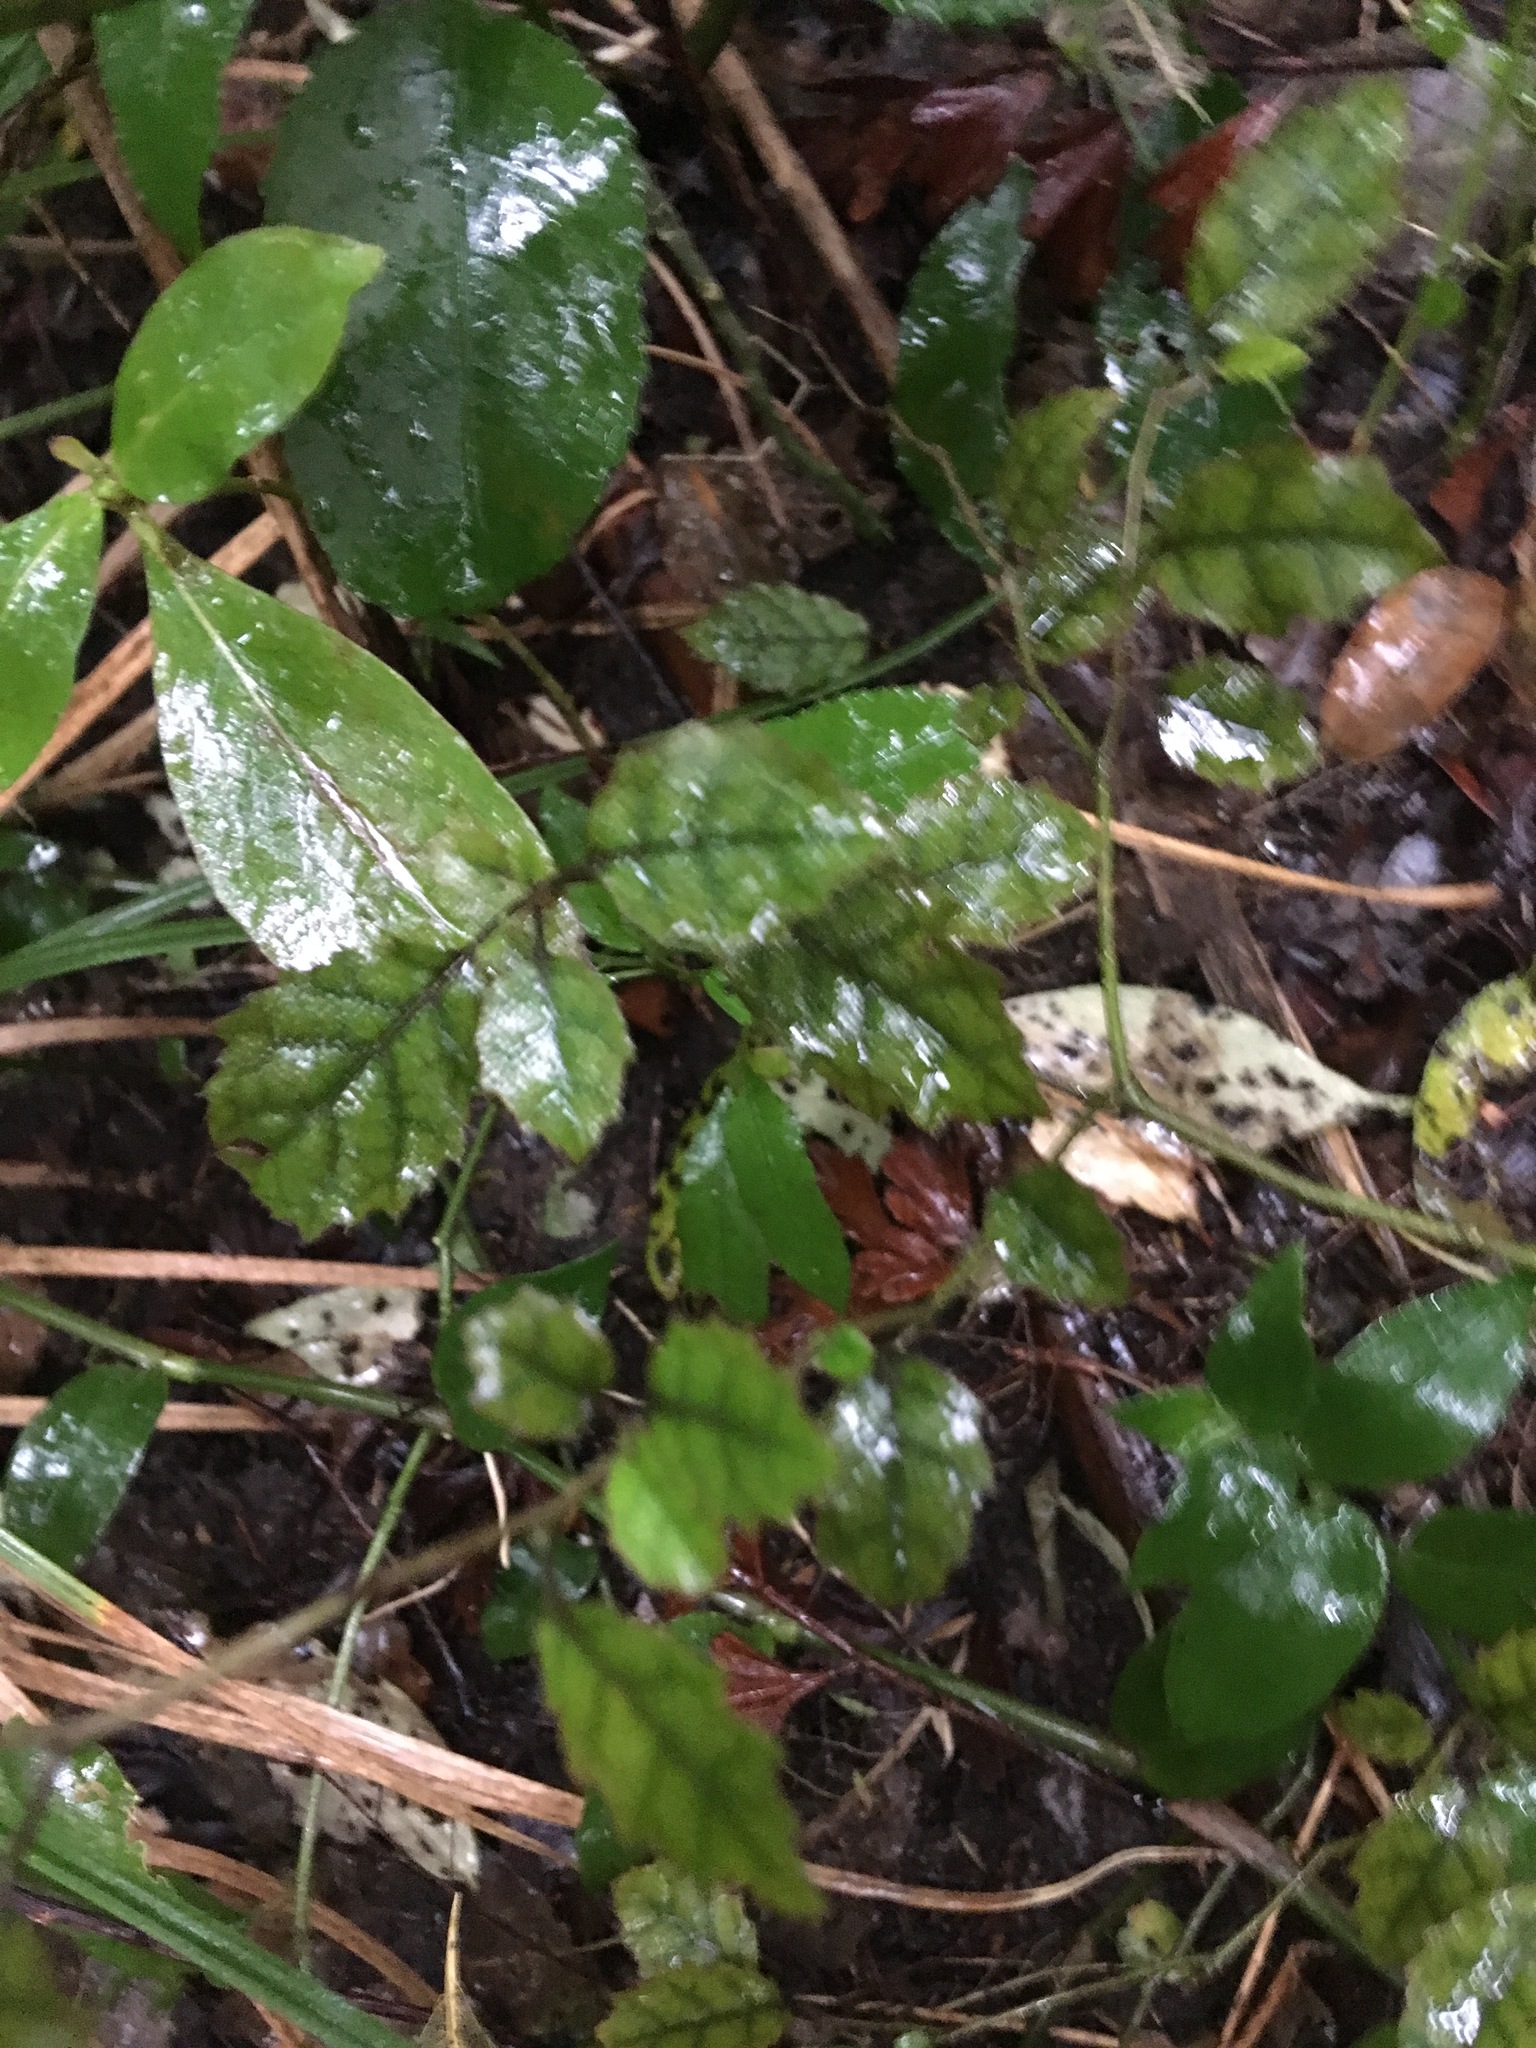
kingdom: Plantae
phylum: Tracheophyta
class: Magnoliopsida
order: Asterales
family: Rousseaceae
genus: Carpodetus
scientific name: Carpodetus serratus
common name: White mapau
